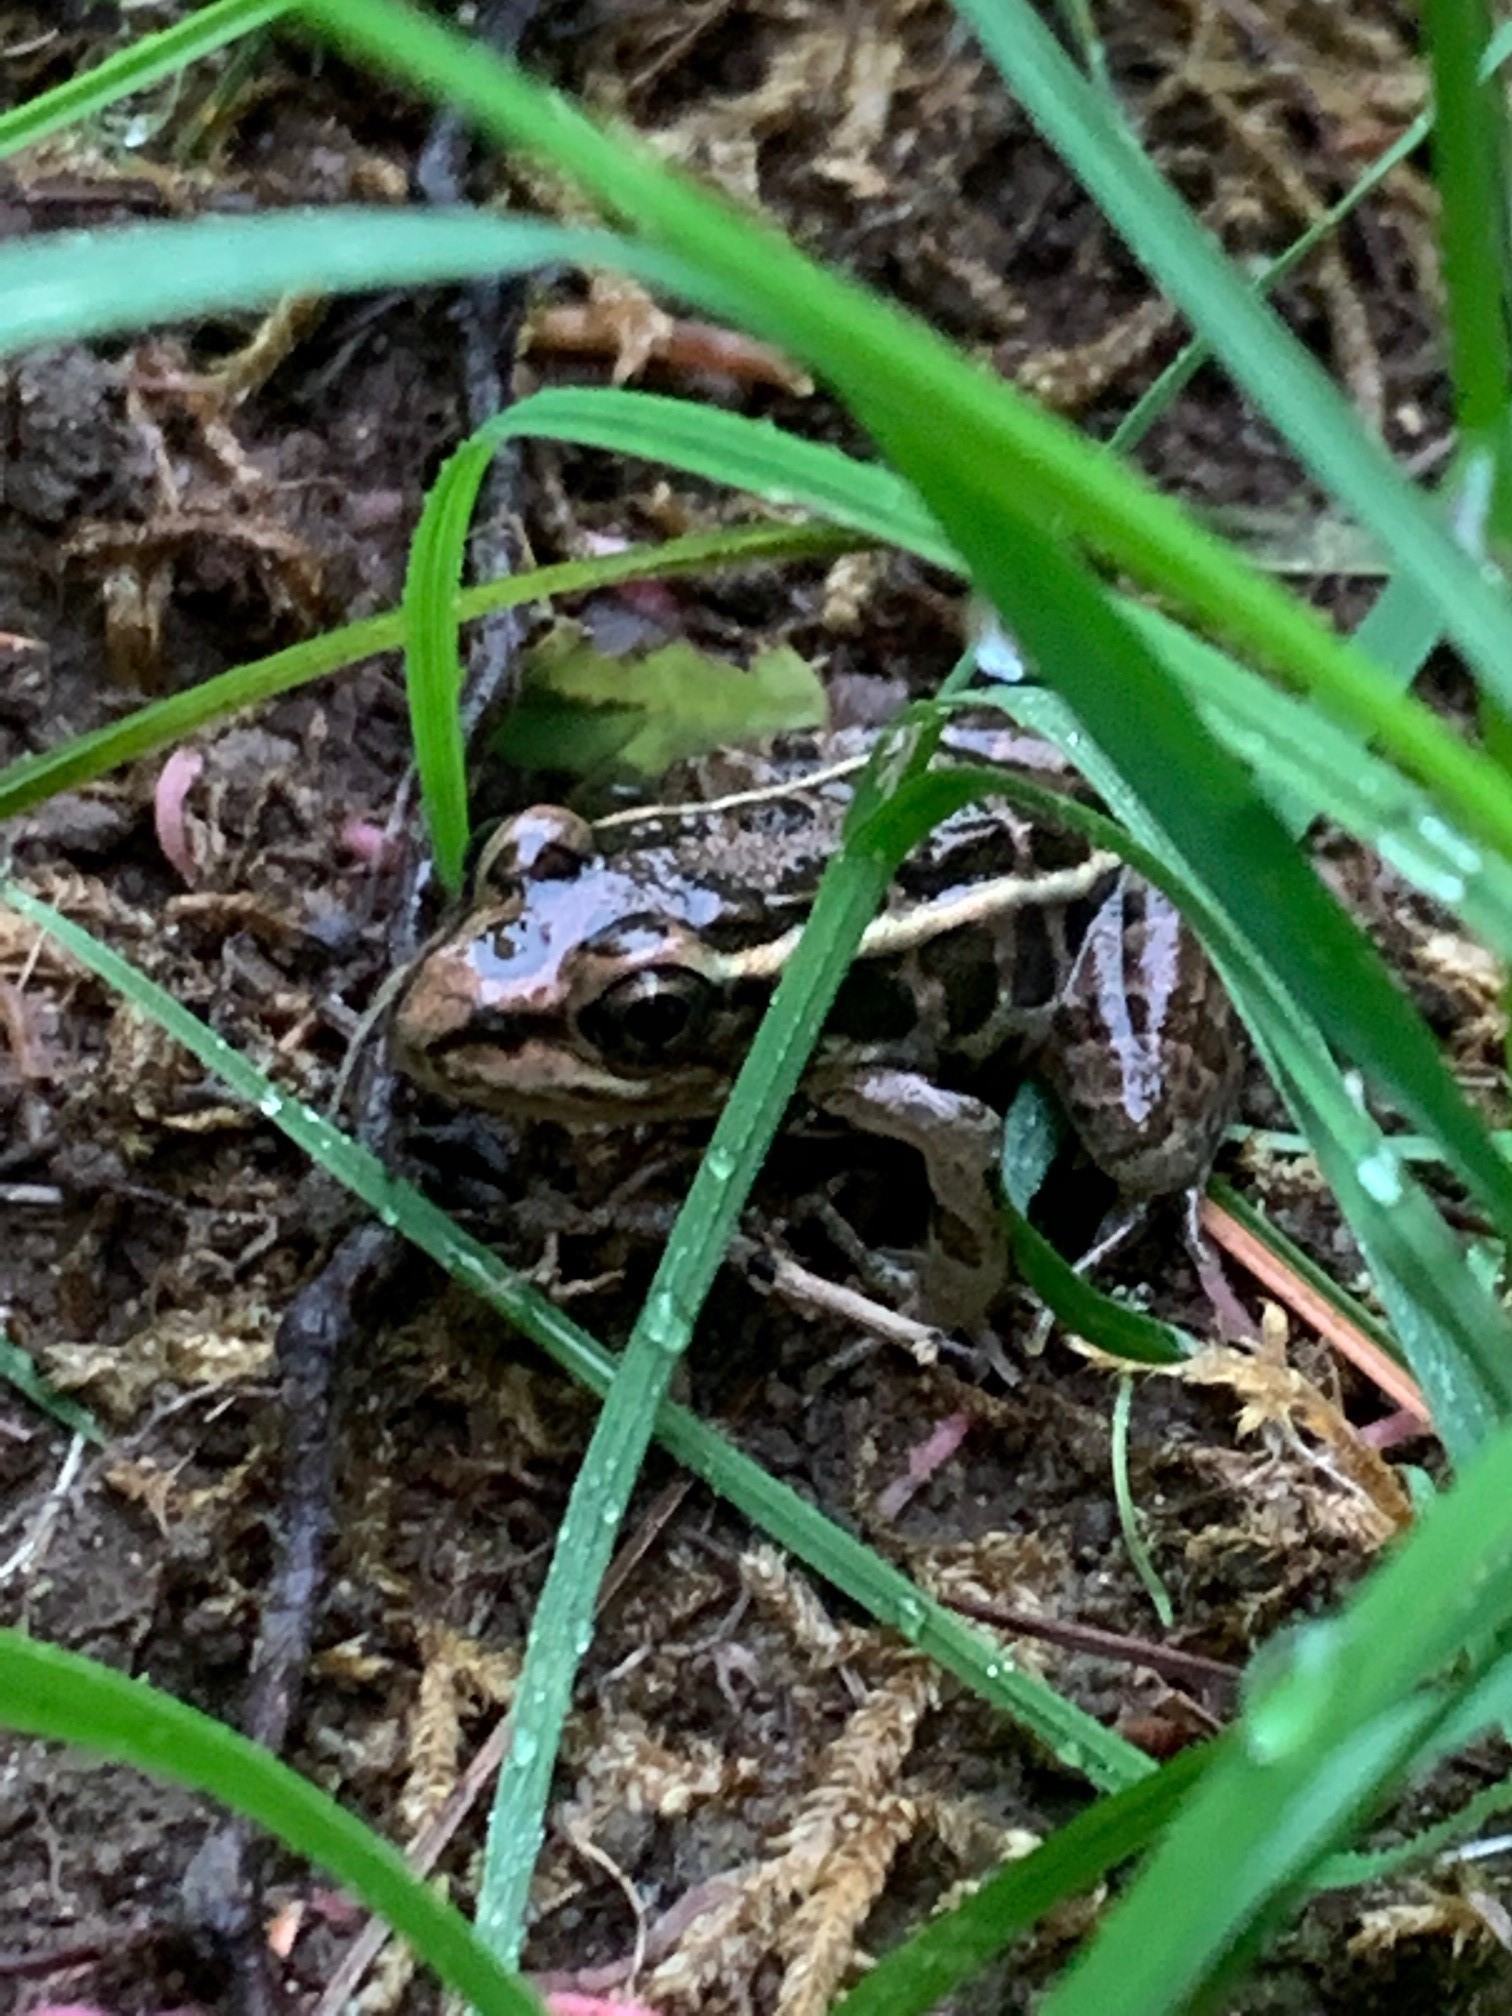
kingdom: Animalia
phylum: Chordata
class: Amphibia
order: Anura
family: Ranidae
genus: Lithobates
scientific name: Lithobates palustris
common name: Pickerel frog
